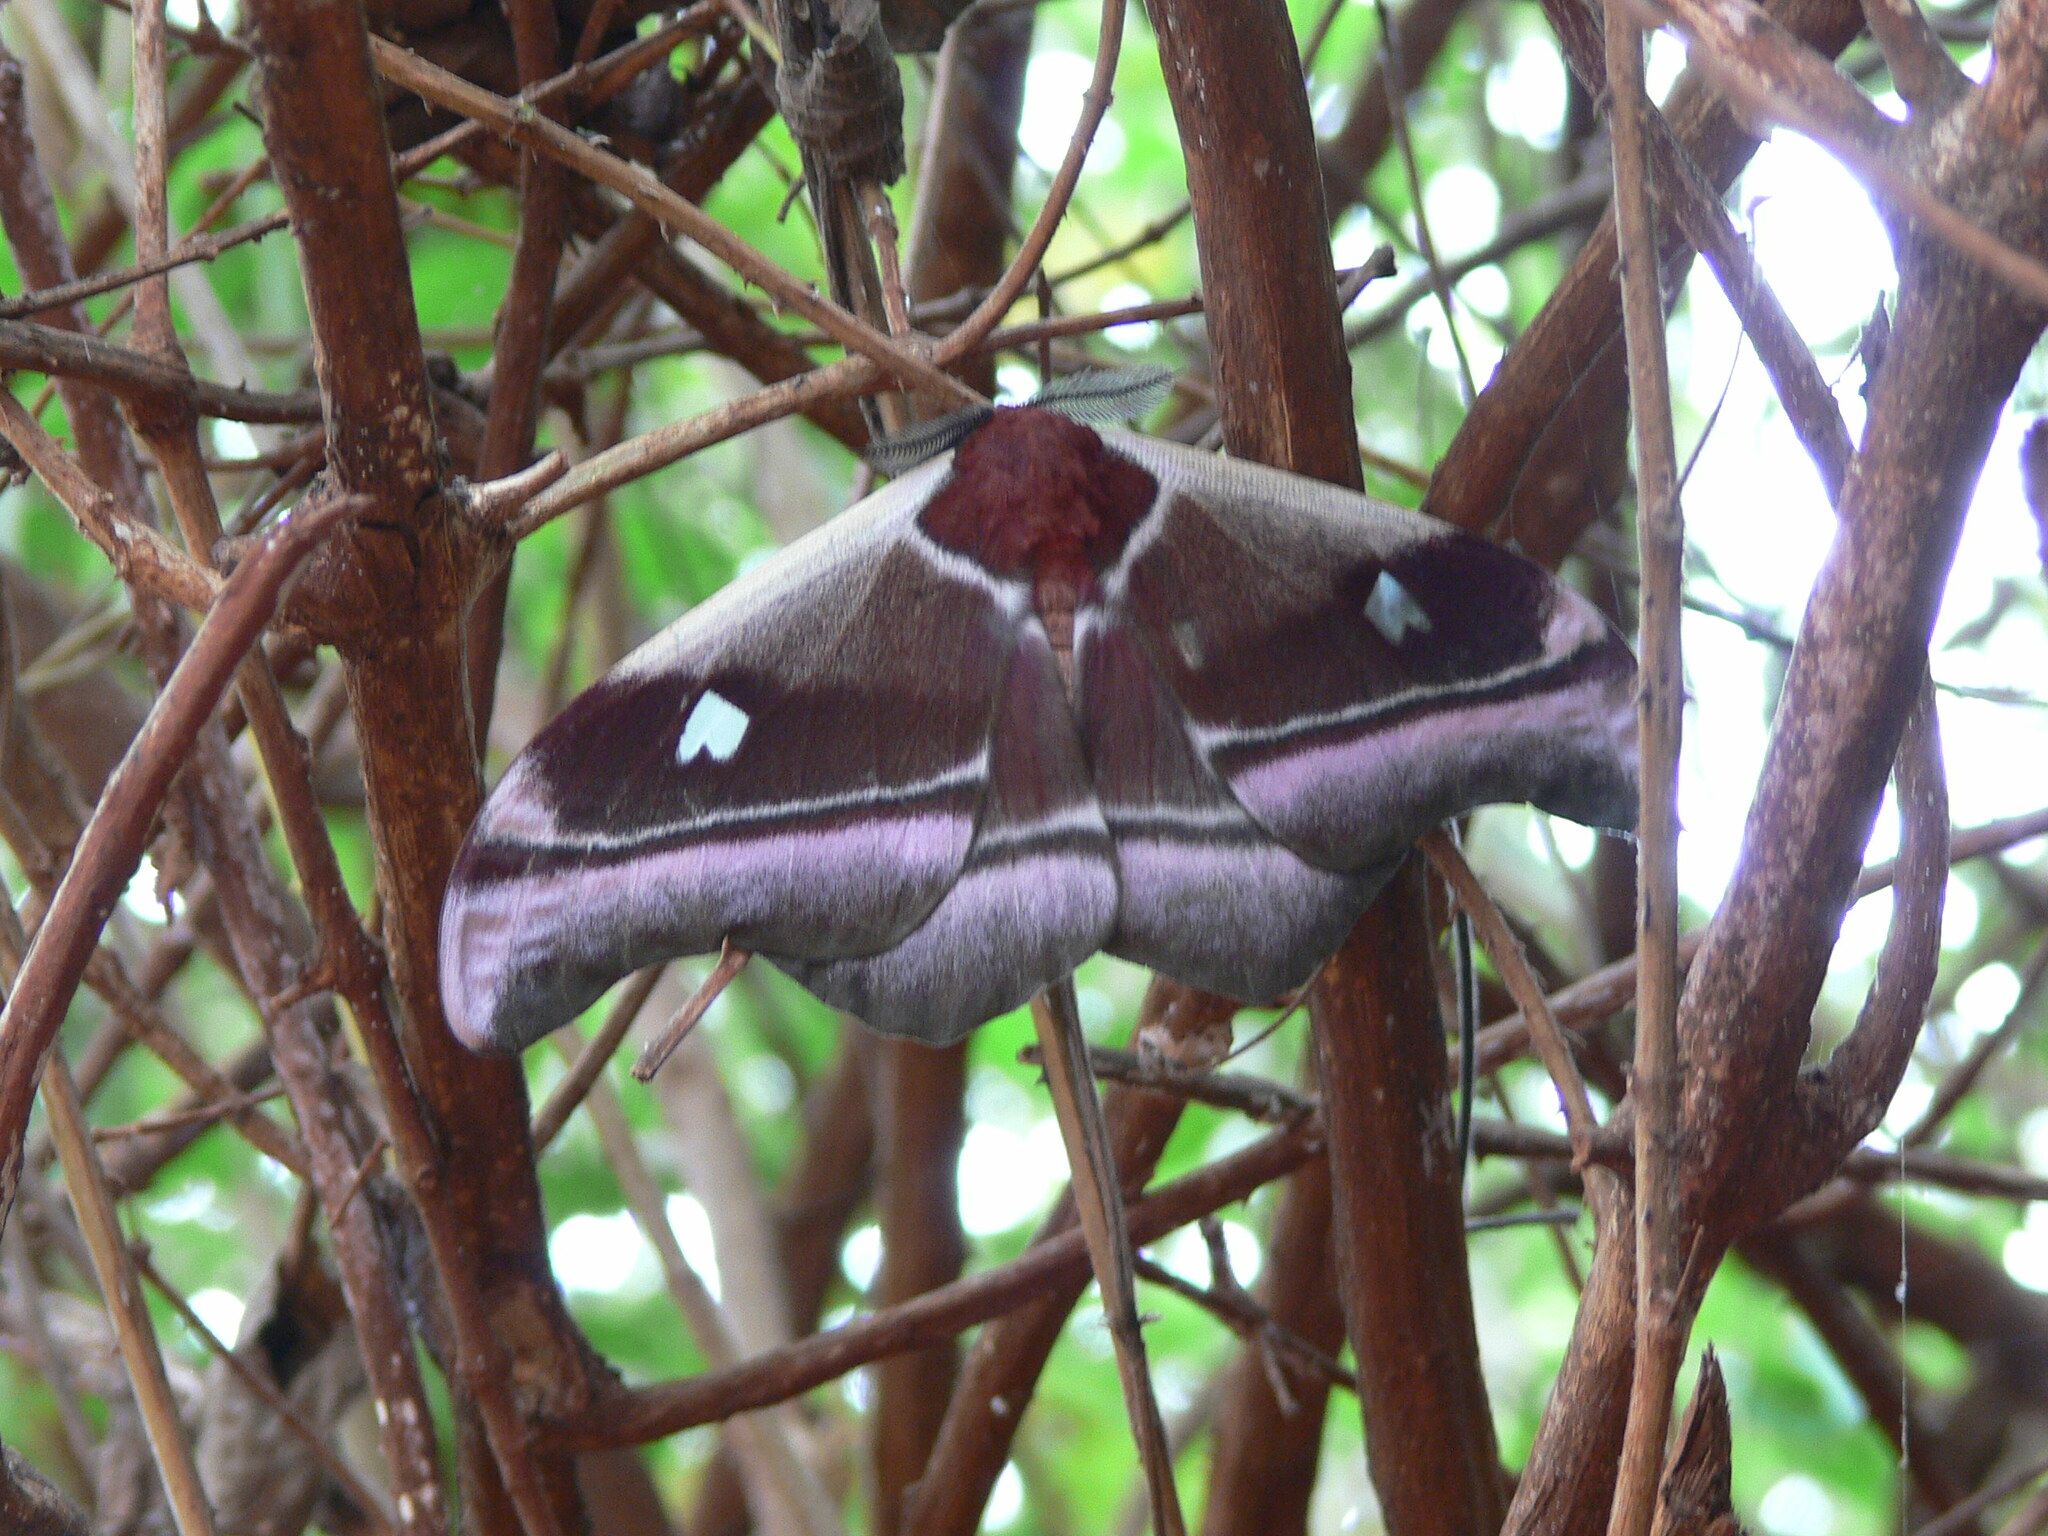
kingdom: Animalia
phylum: Arthropoda
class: Insecta
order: Lepidoptera
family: Saturniidae
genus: Bunaea
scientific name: Bunaea aslauga
